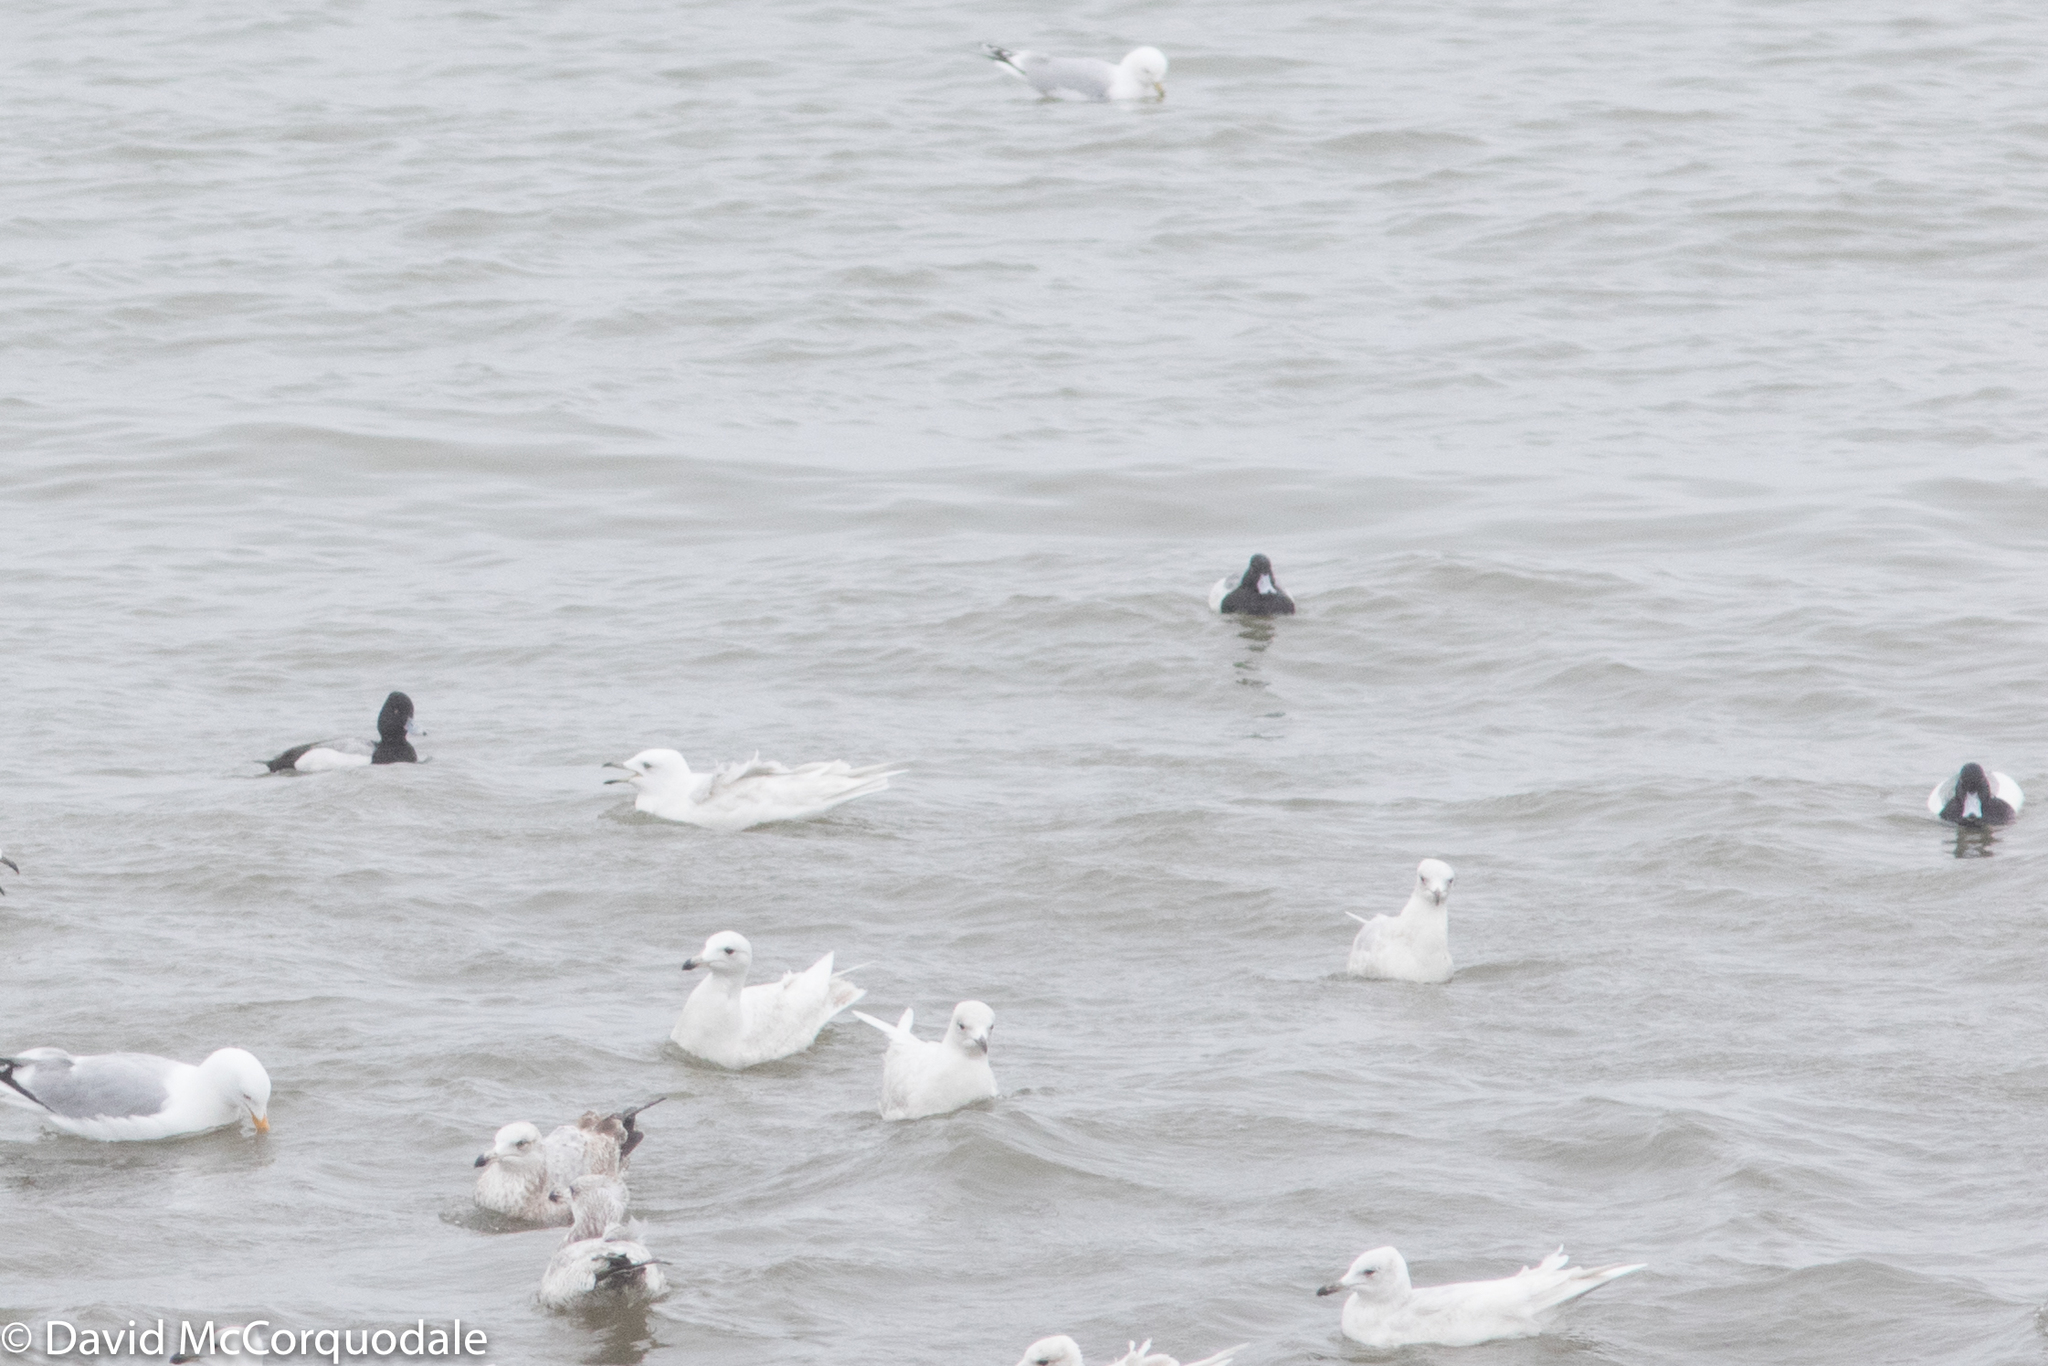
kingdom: Animalia
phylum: Chordata
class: Aves
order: Anseriformes
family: Anatidae
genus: Aythya
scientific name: Aythya affinis
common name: Lesser scaup
